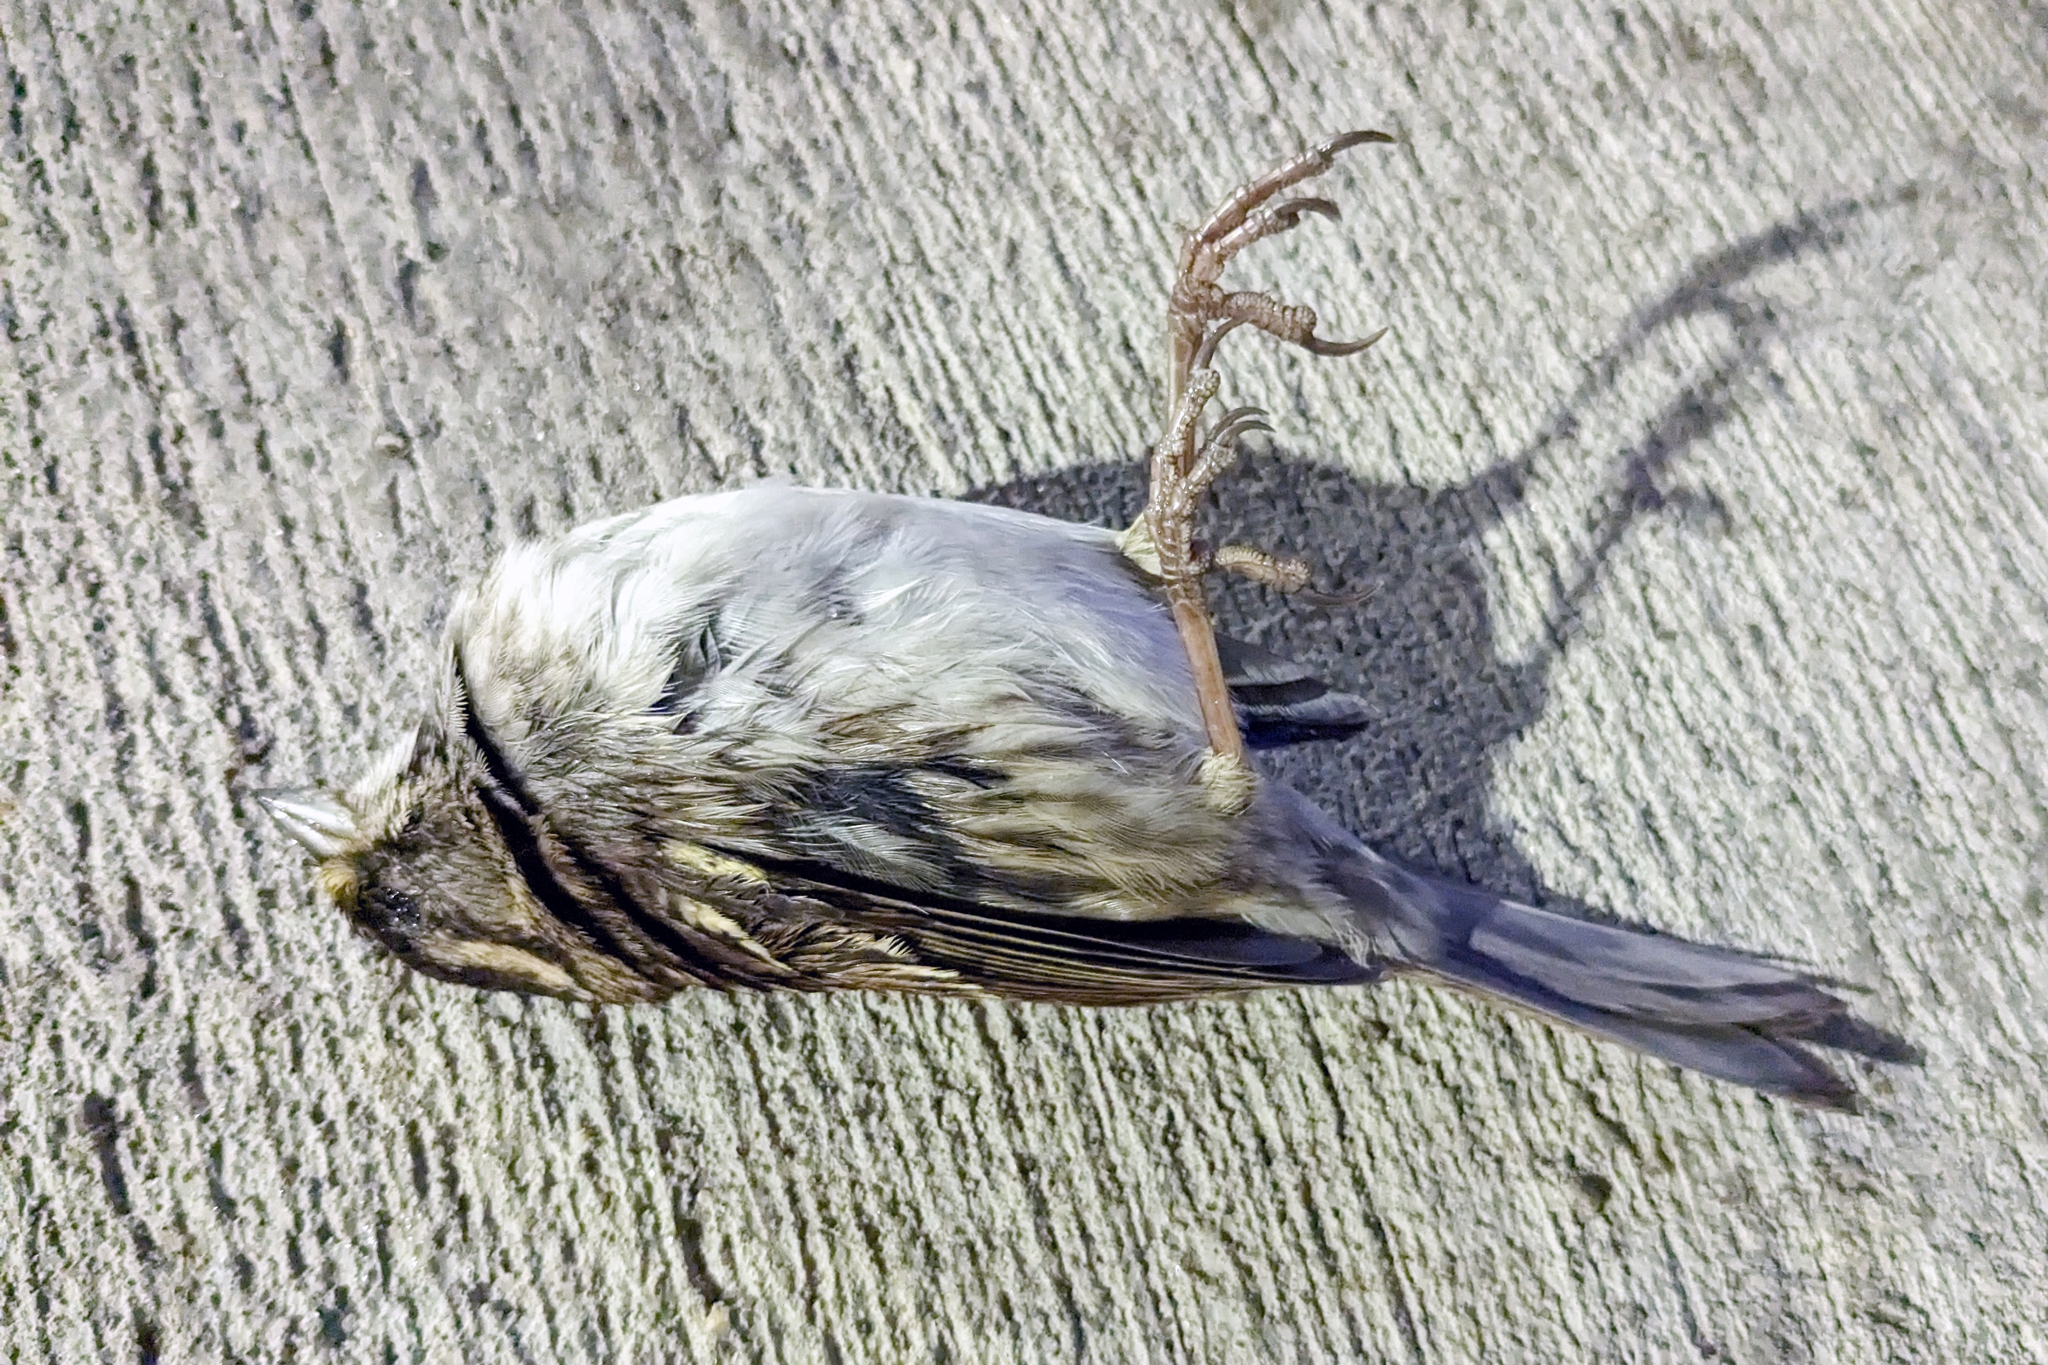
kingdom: Animalia
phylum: Chordata
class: Aves
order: Passeriformes
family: Passerellidae
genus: Zonotrichia
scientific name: Zonotrichia albicollis
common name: White-throated sparrow
